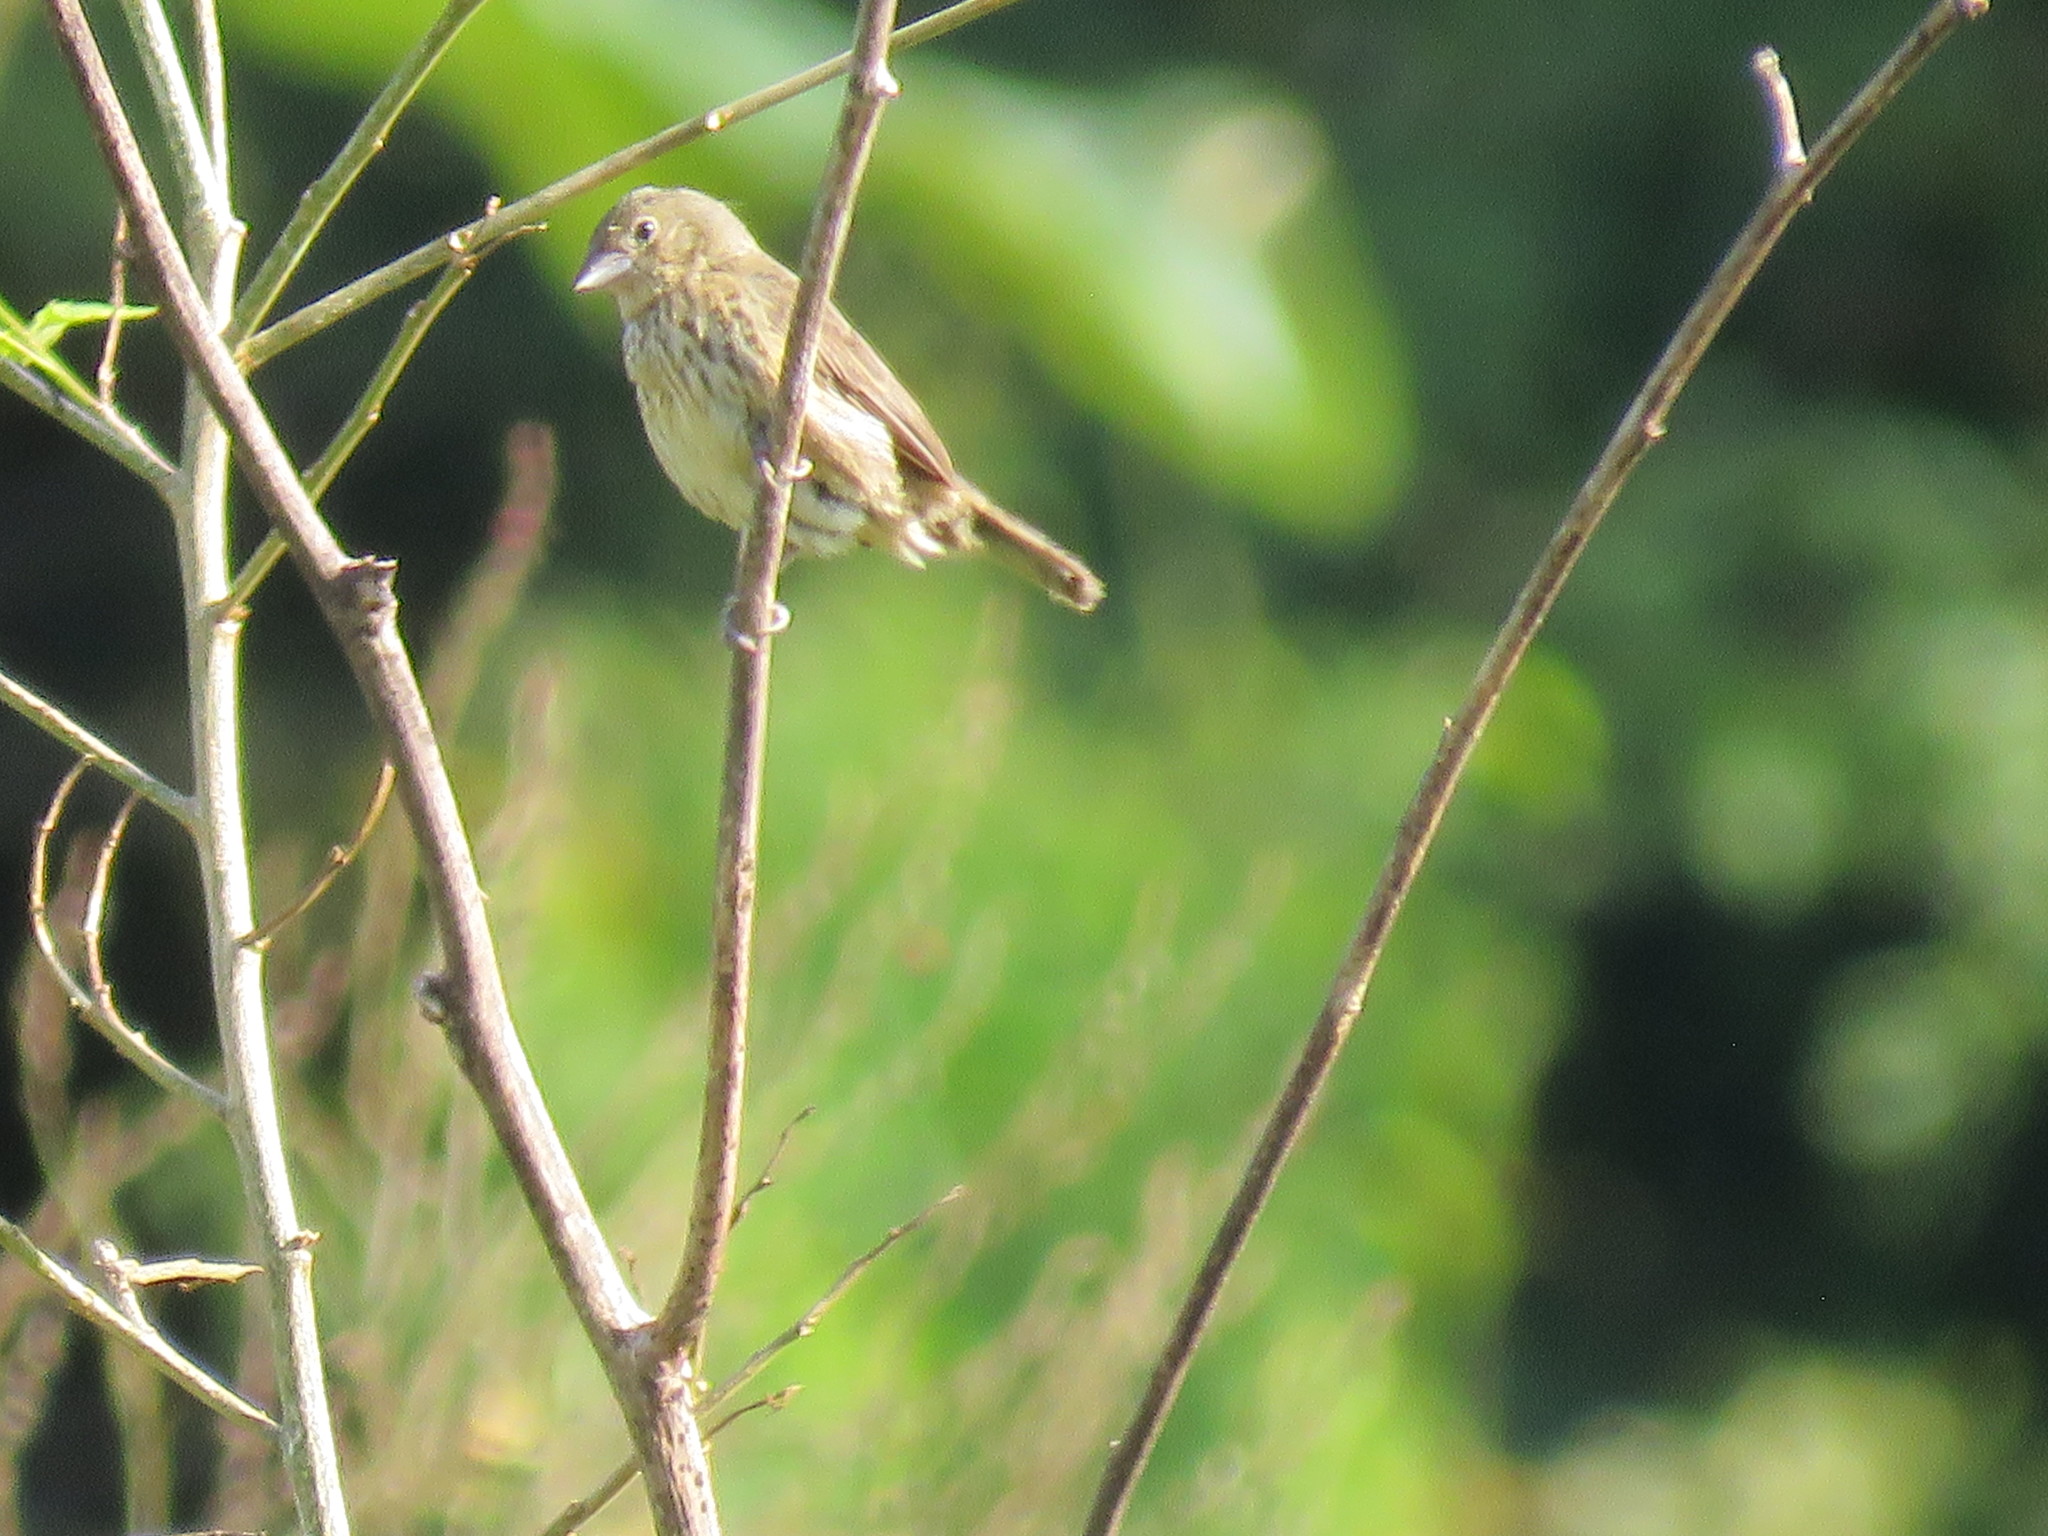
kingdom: Animalia
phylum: Chordata
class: Aves
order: Passeriformes
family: Thraupidae
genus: Volatinia
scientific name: Volatinia jacarina
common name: Blue-black grassquit
